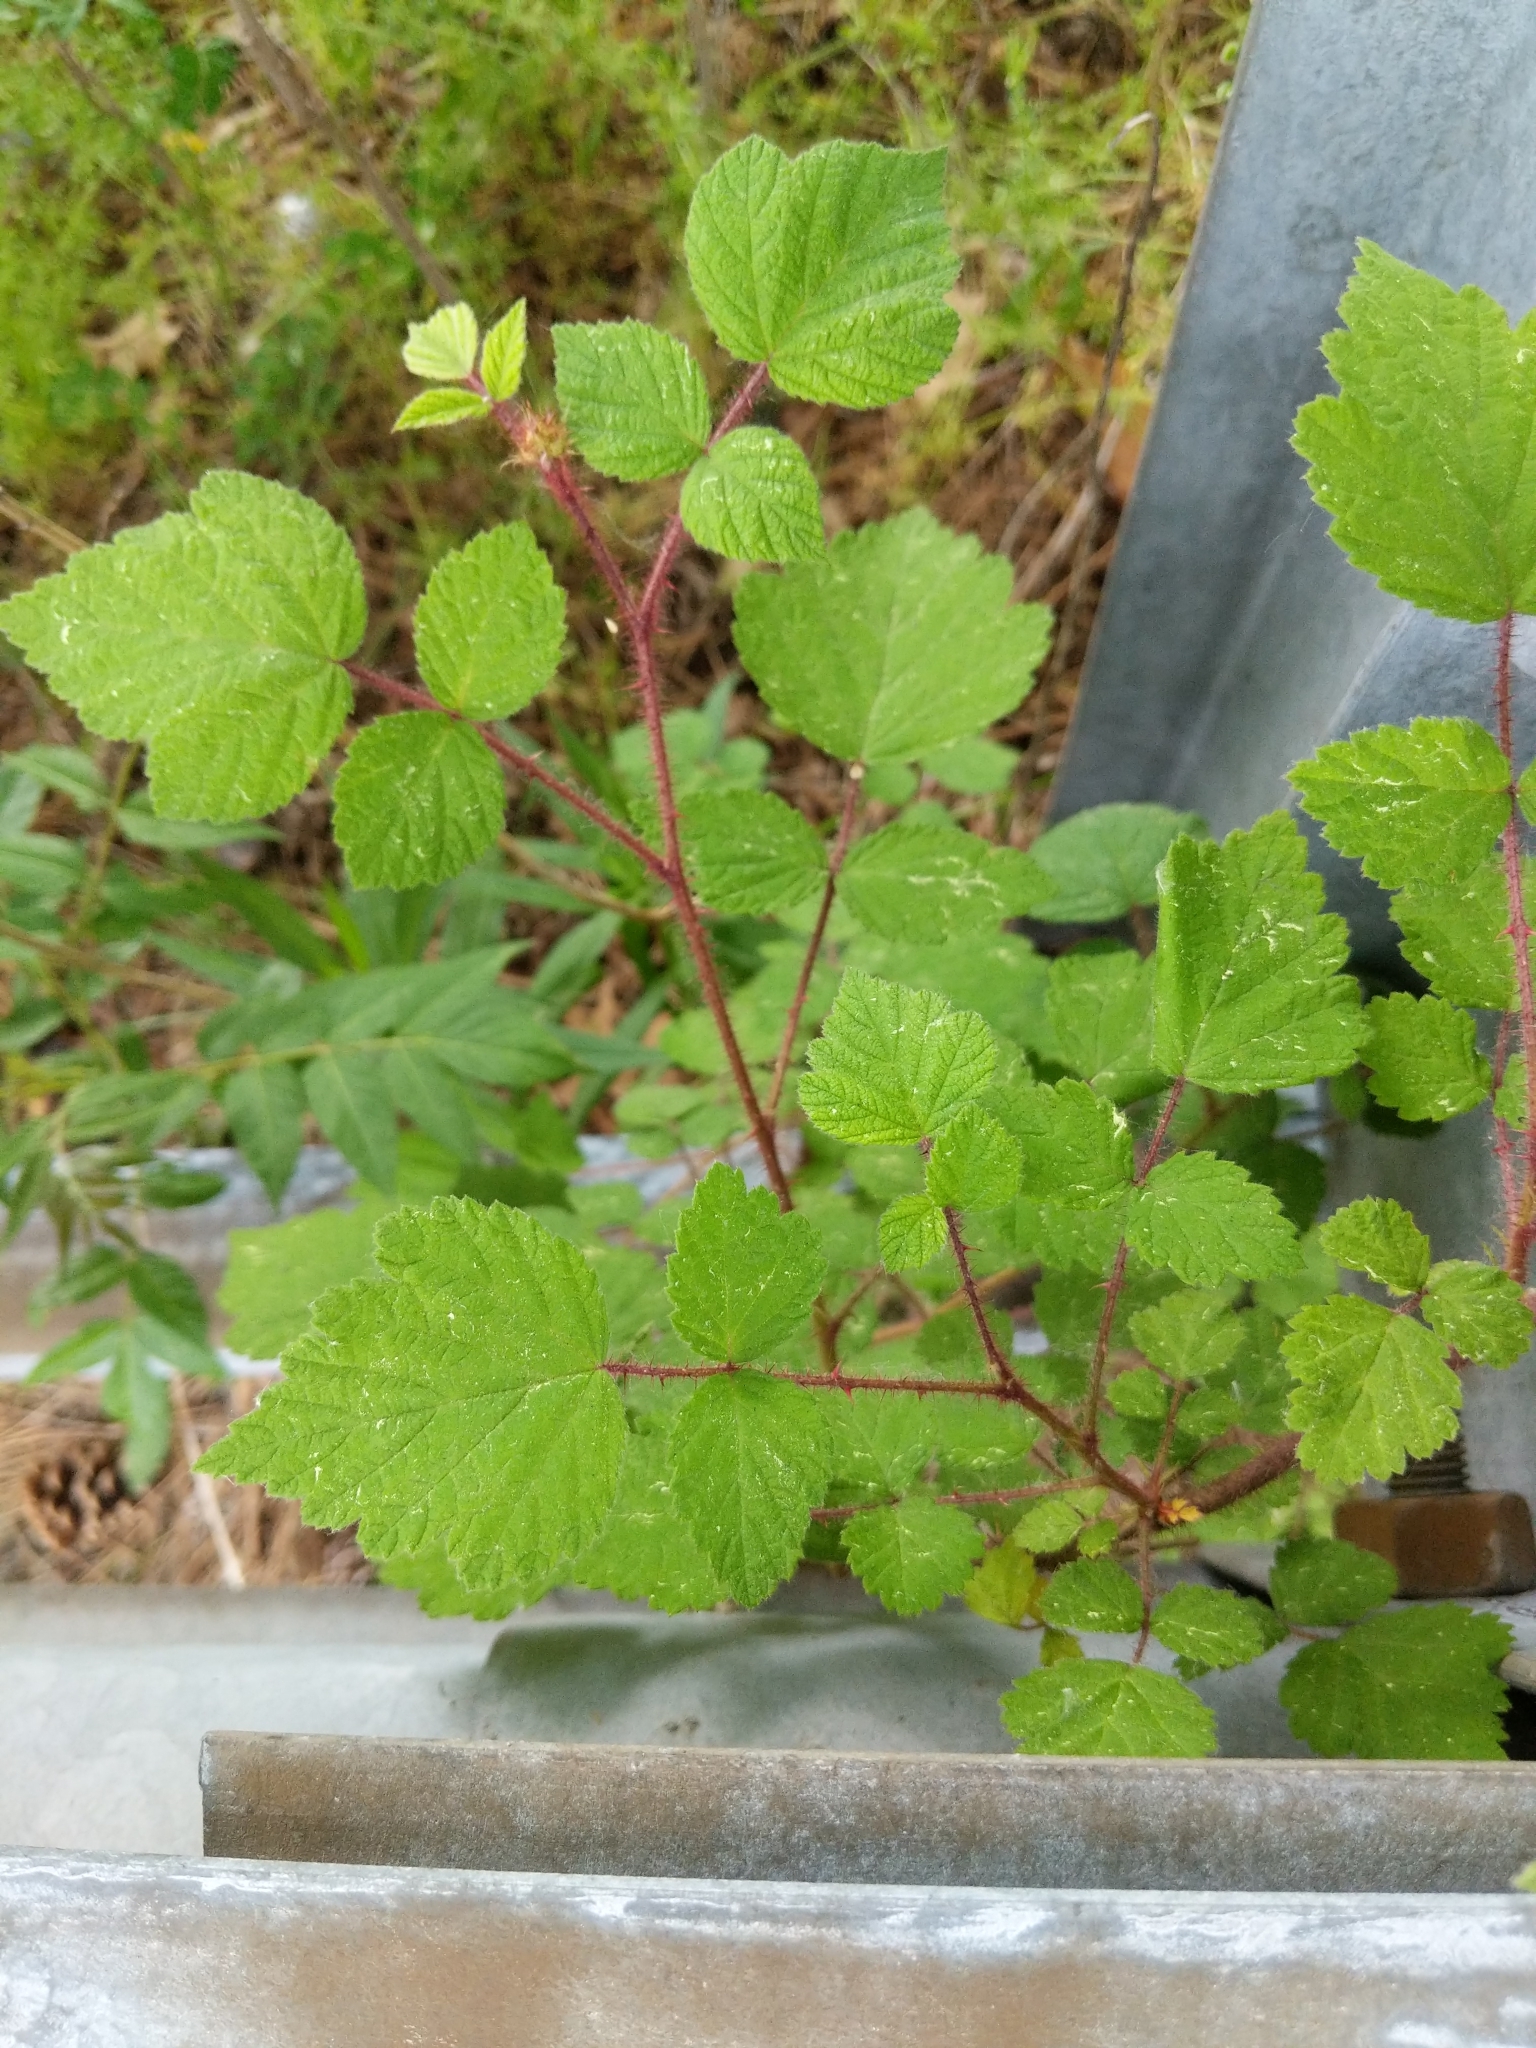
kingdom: Plantae
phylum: Tracheophyta
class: Magnoliopsida
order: Rosales
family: Rosaceae
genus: Rubus
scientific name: Rubus phoenicolasius
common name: Japanese wineberry
